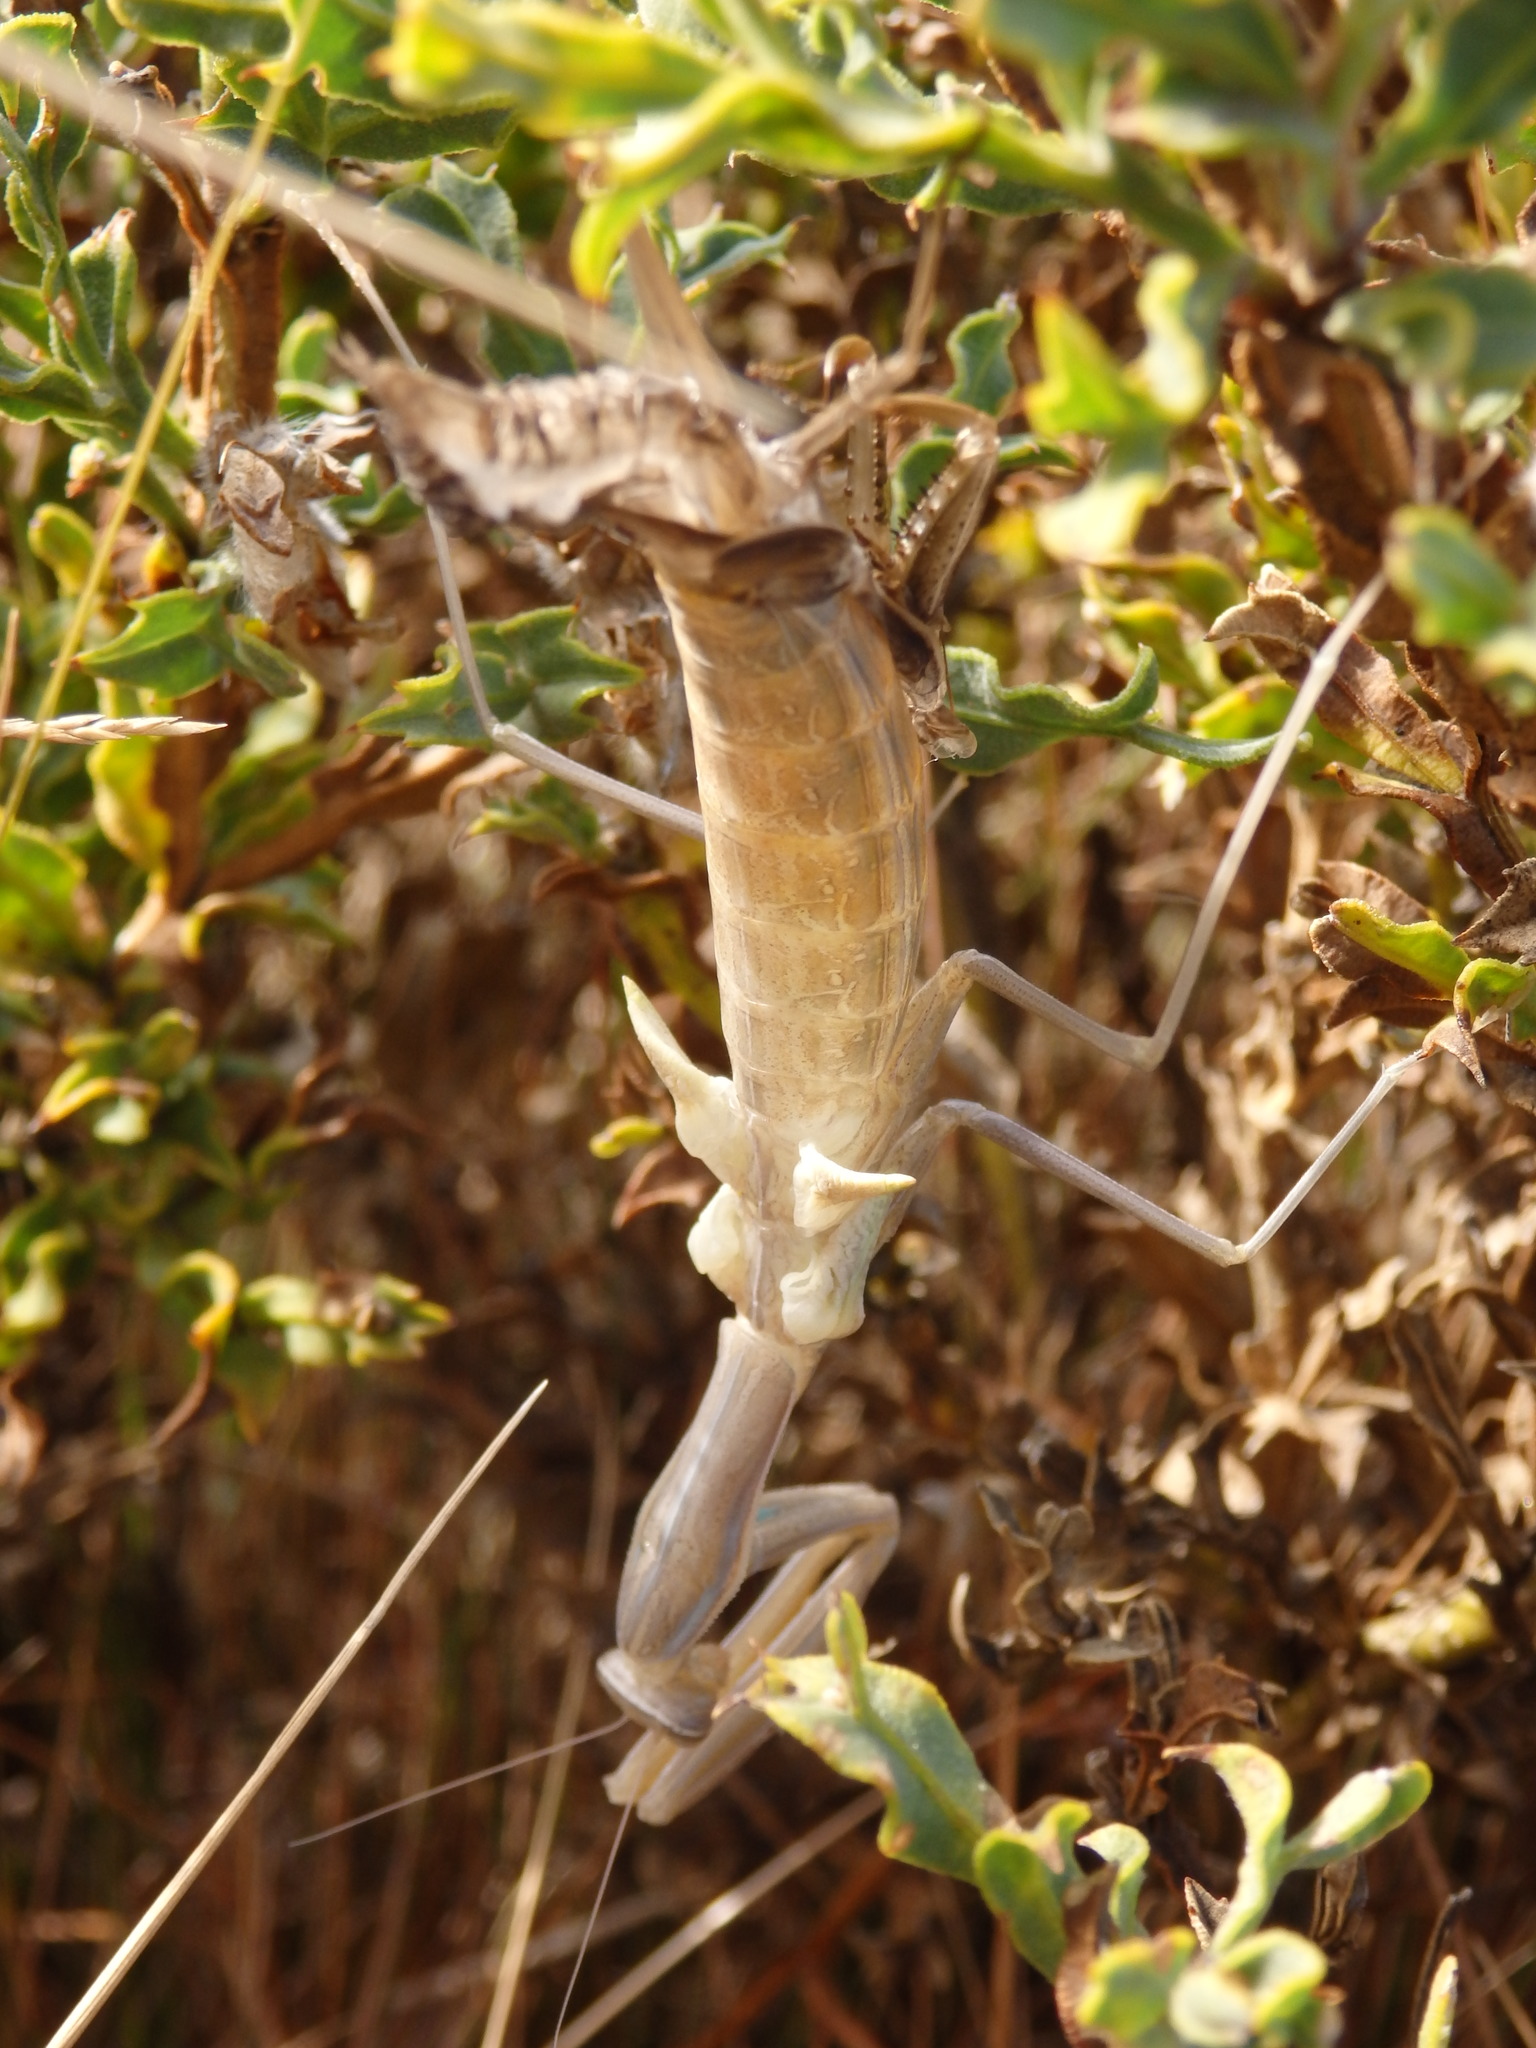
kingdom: Animalia
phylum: Arthropoda
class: Insecta
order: Mantodea
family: Mantidae
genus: Mantis
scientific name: Mantis religiosa
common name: Praying mantis
